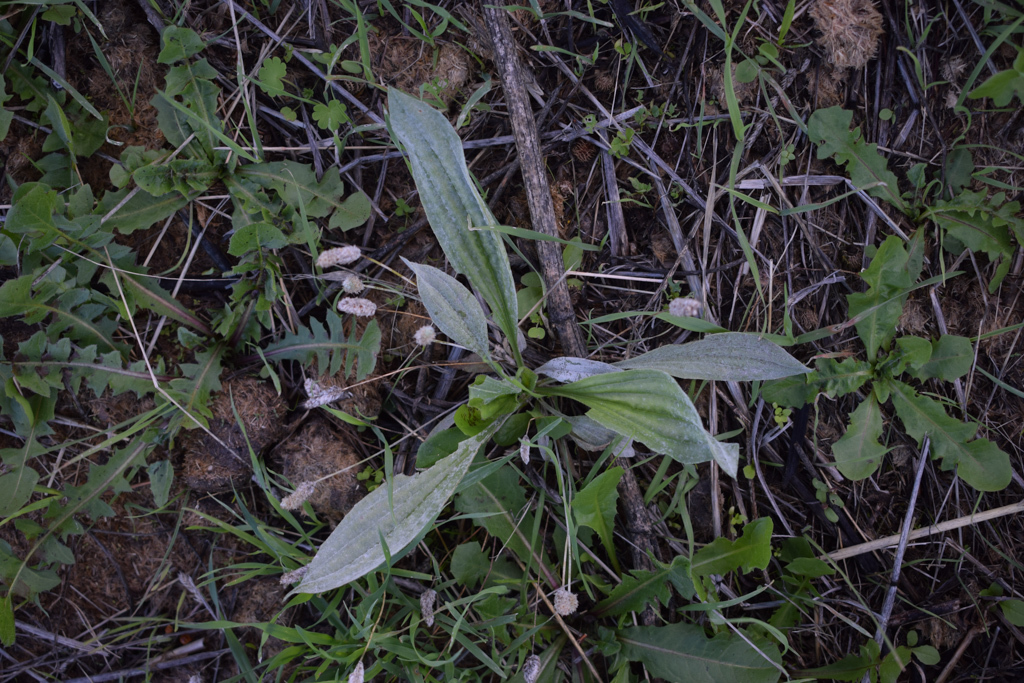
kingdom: Plantae
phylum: Tracheophyta
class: Magnoliopsida
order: Lamiales
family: Plantaginaceae
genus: Plantago
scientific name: Plantago lanceolata
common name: Ribwort plantain
